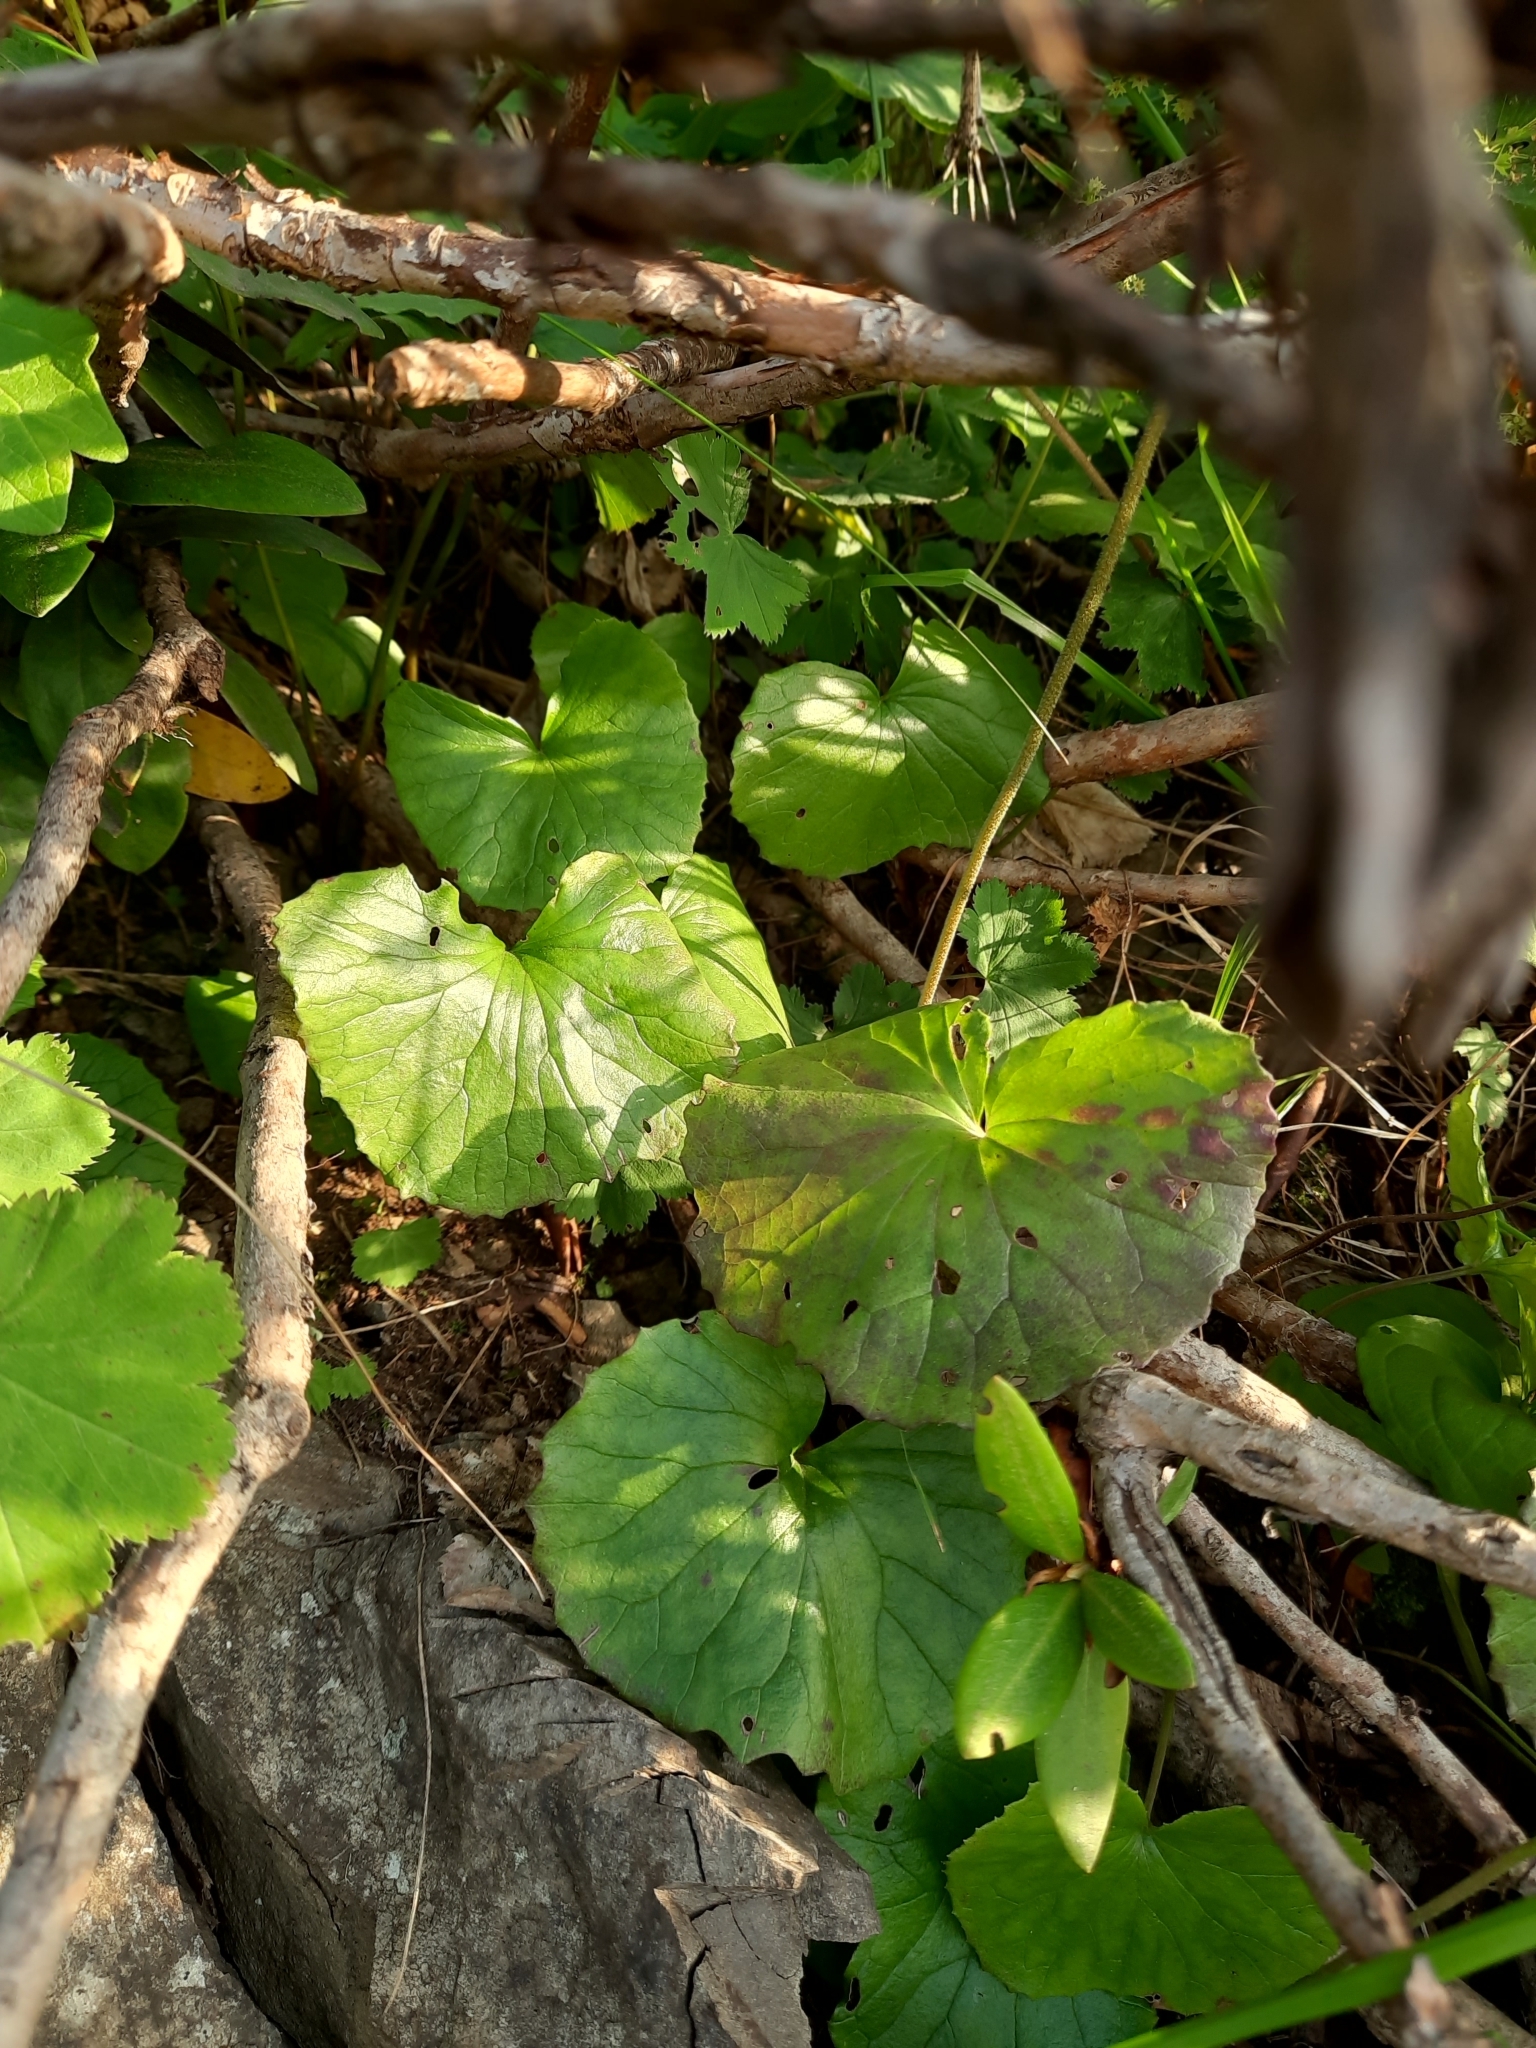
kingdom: Plantae
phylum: Tracheophyta
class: Magnoliopsida
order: Ranunculales
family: Ranunculaceae
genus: Caltha
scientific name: Caltha palustris
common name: Marsh marigold
